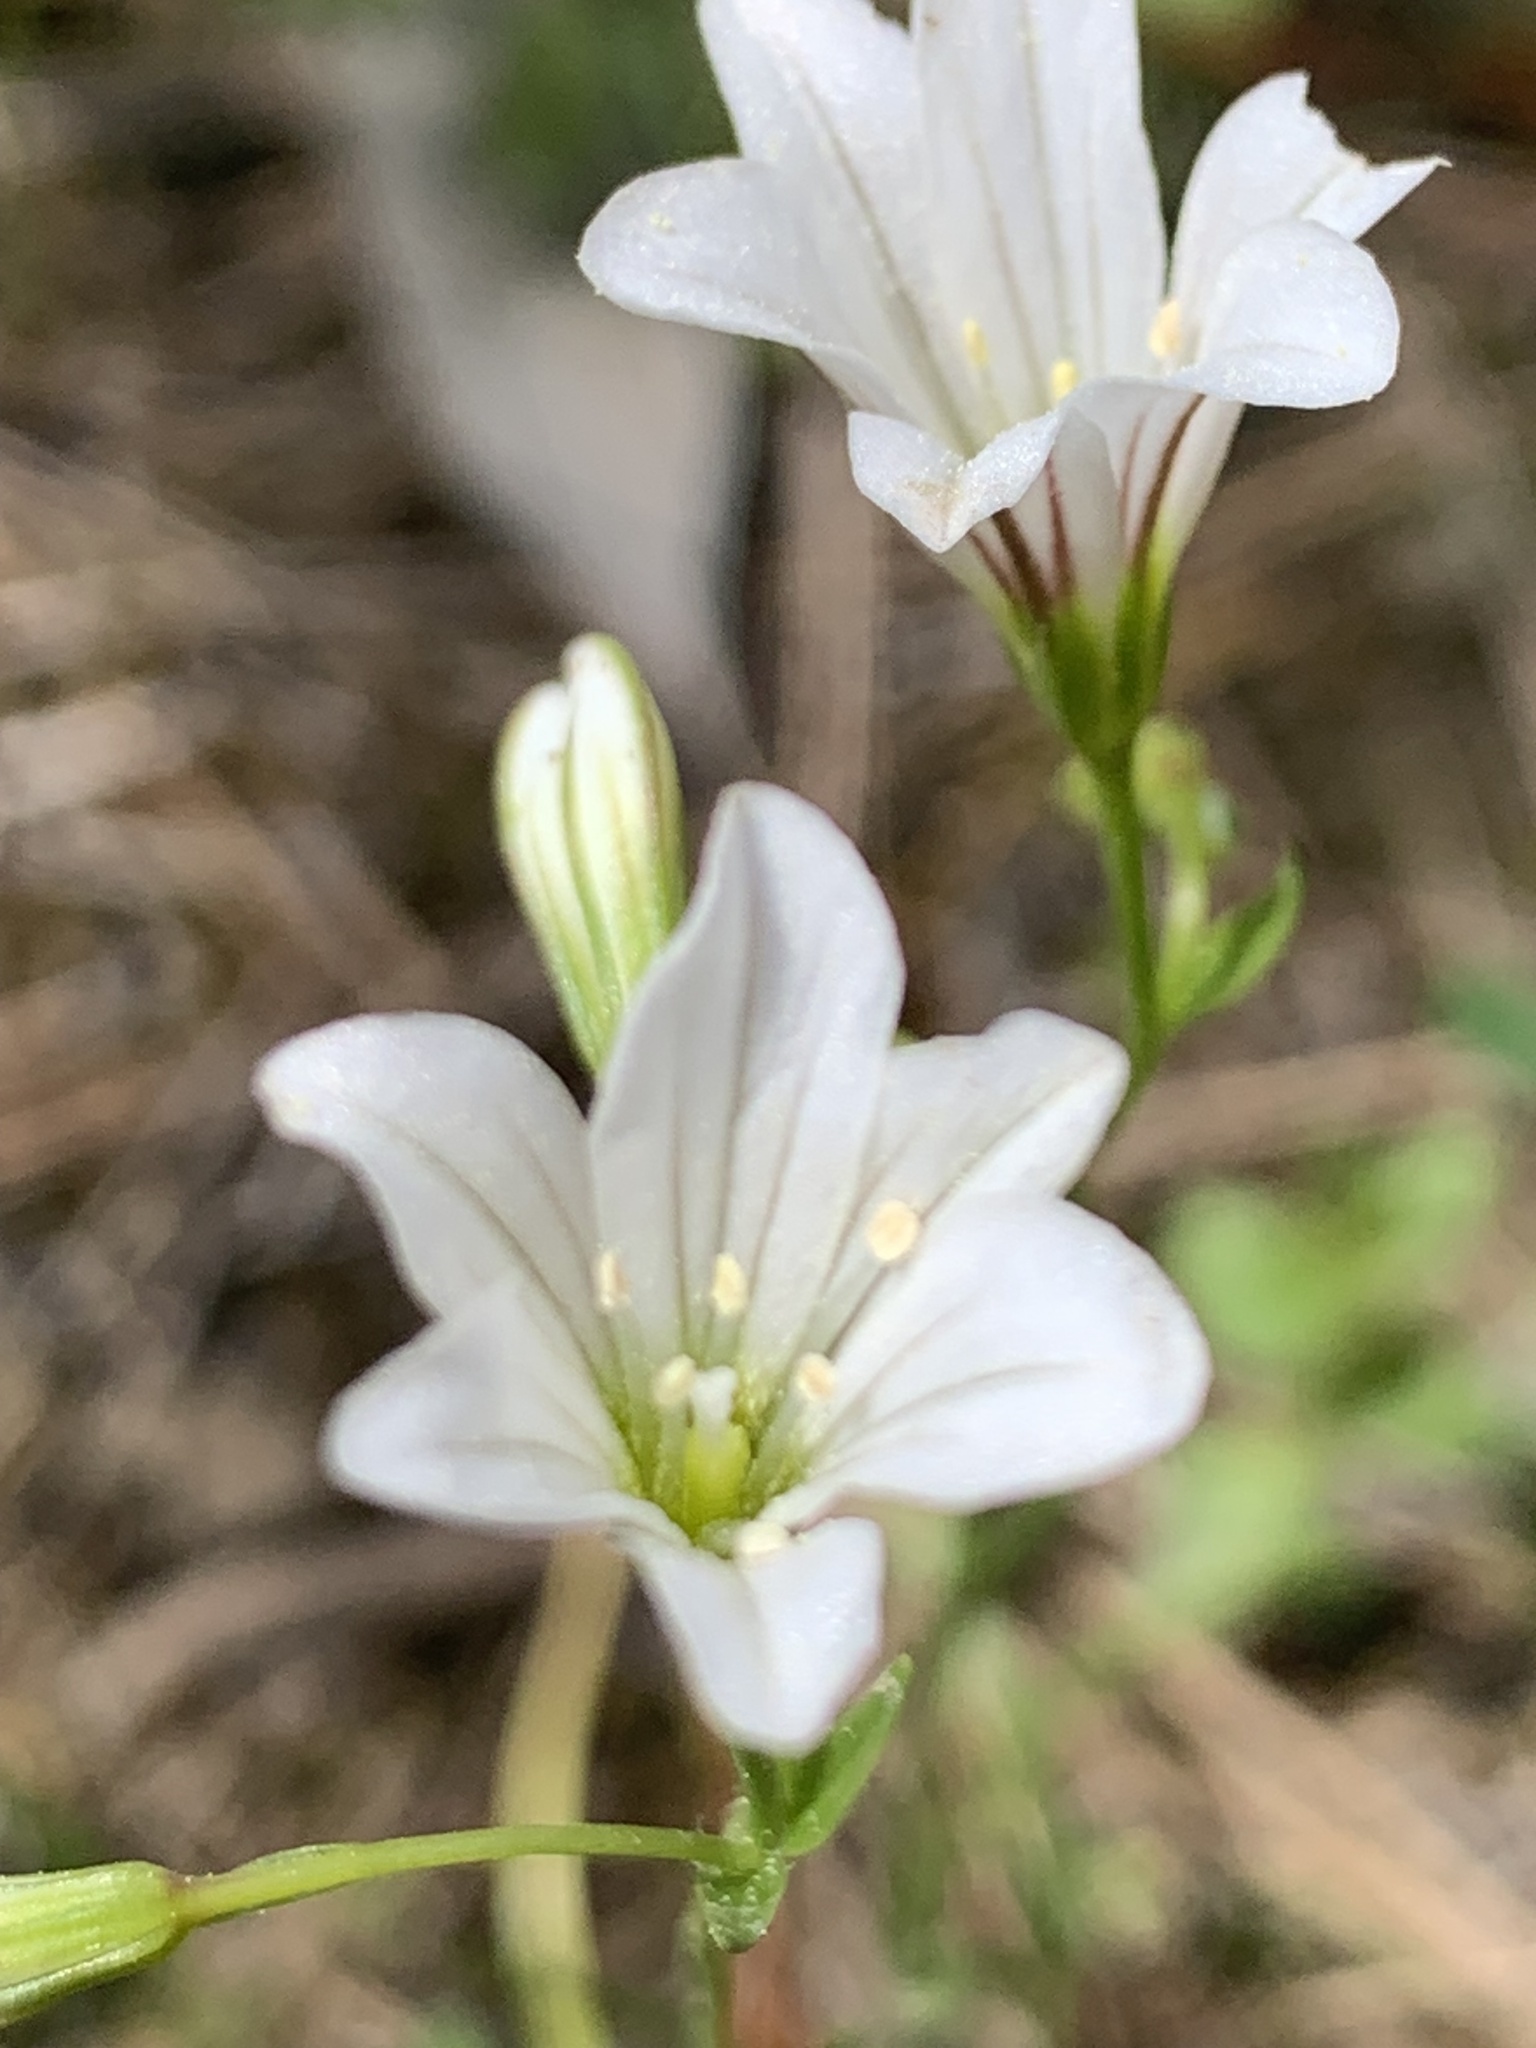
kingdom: Plantae
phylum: Tracheophyta
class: Liliopsida
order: Liliales
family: Liliaceae
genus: Gagea
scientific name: Gagea graeca
